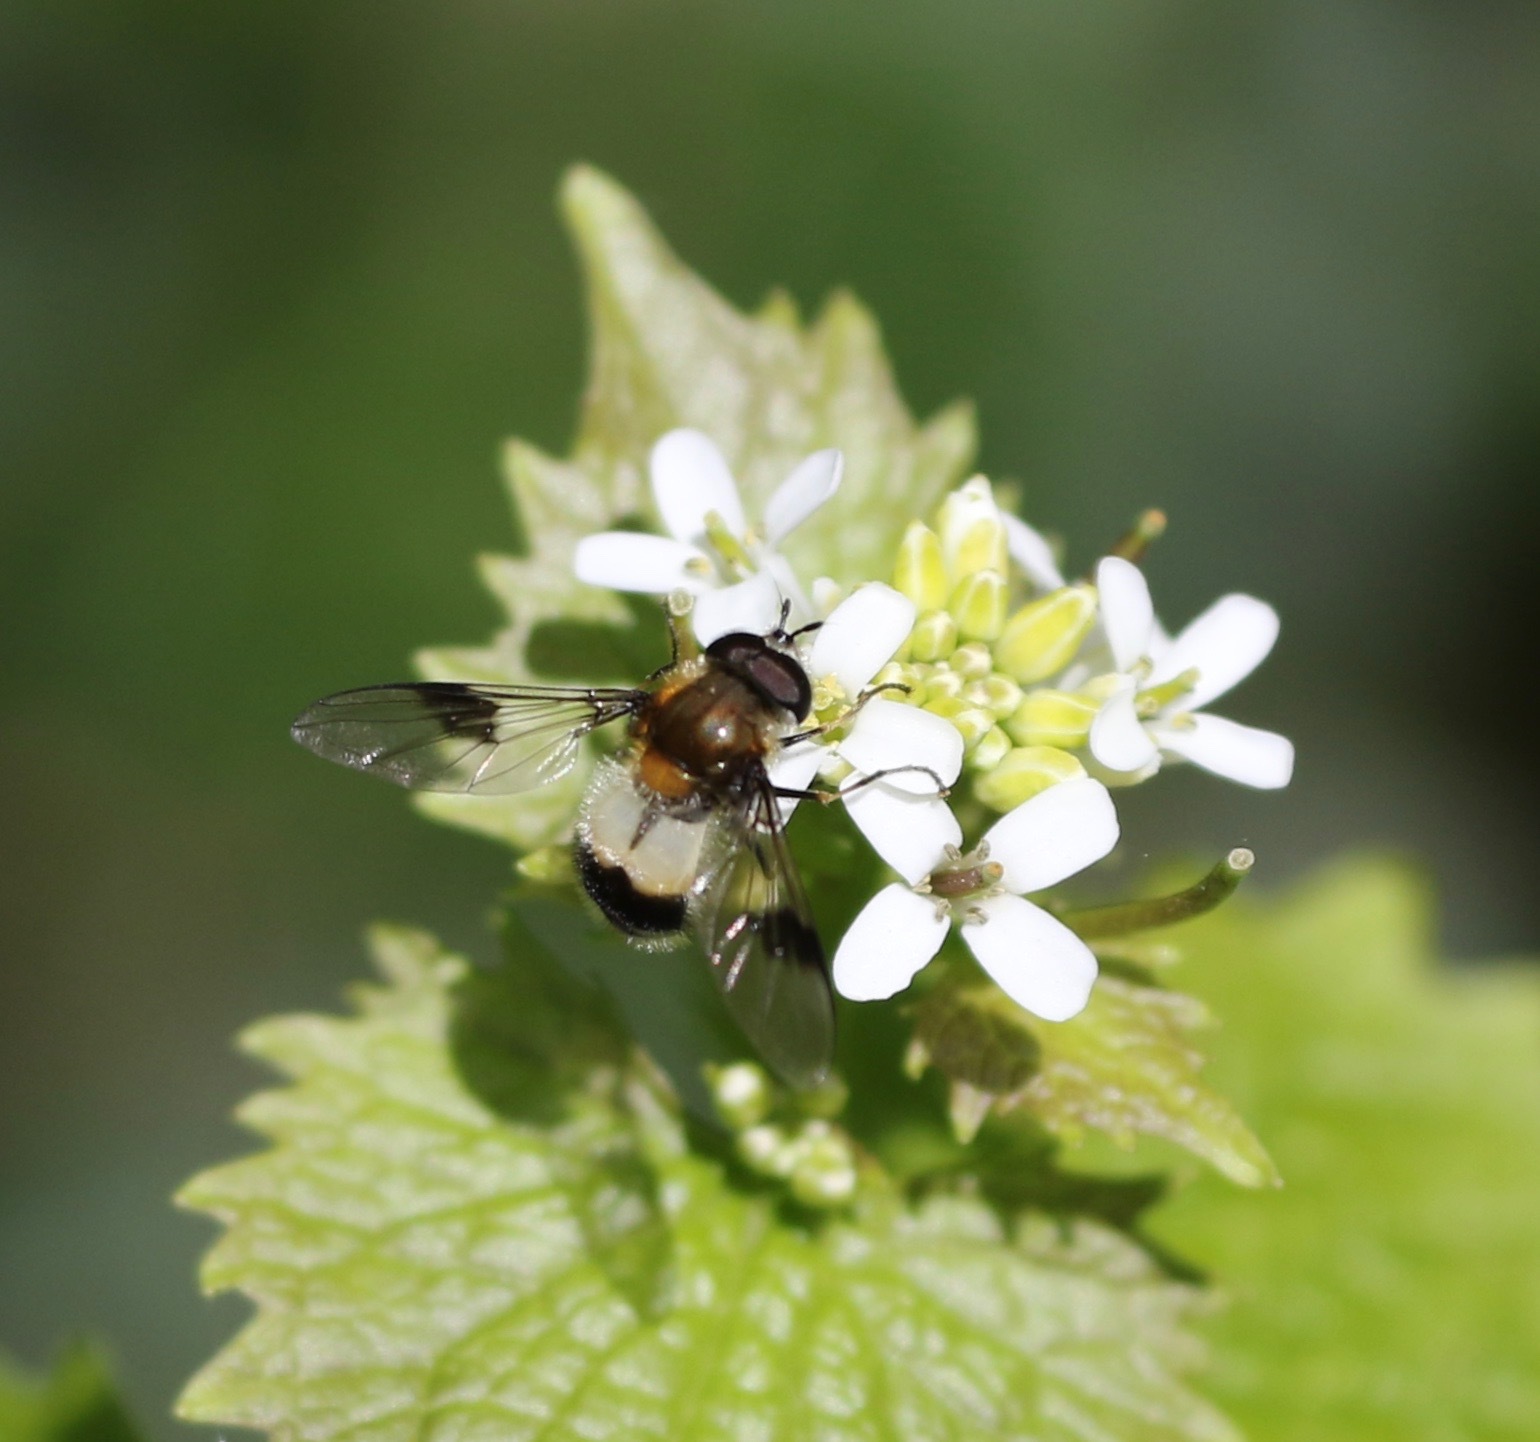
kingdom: Animalia
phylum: Arthropoda
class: Insecta
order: Diptera
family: Syrphidae
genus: Leucozona
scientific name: Leucozona lucorum
